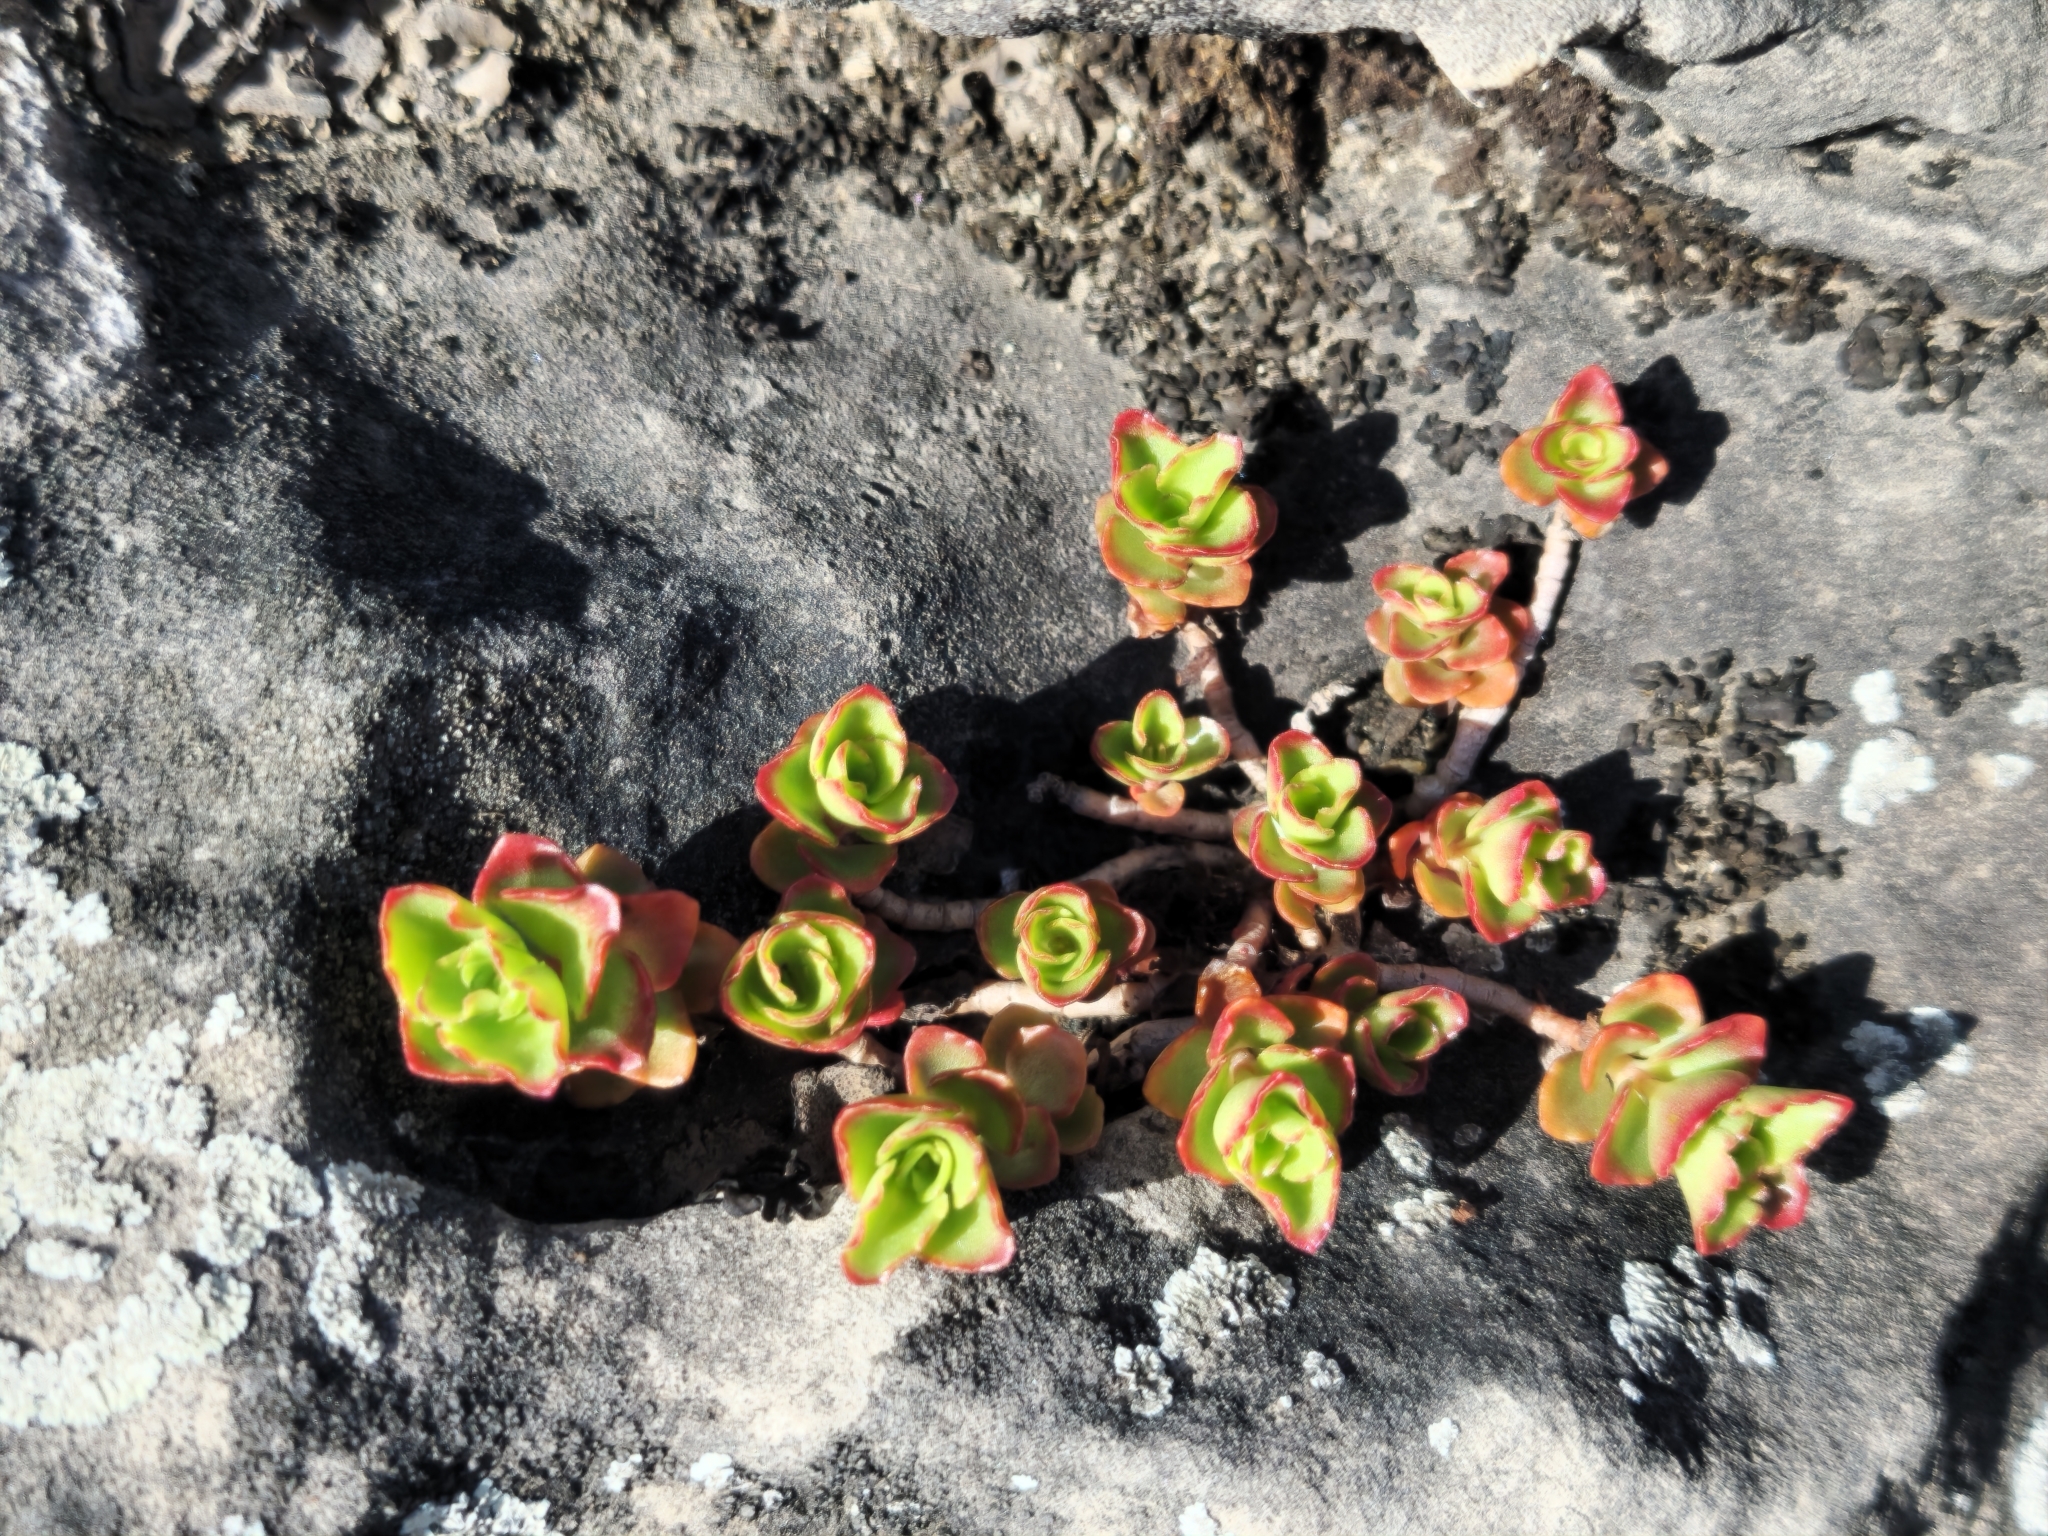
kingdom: Plantae
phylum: Tracheophyta
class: Magnoliopsida
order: Saxifragales
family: Crassulaceae
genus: Phedimus
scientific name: Phedimus spurius
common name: Caucasian stonecrop
